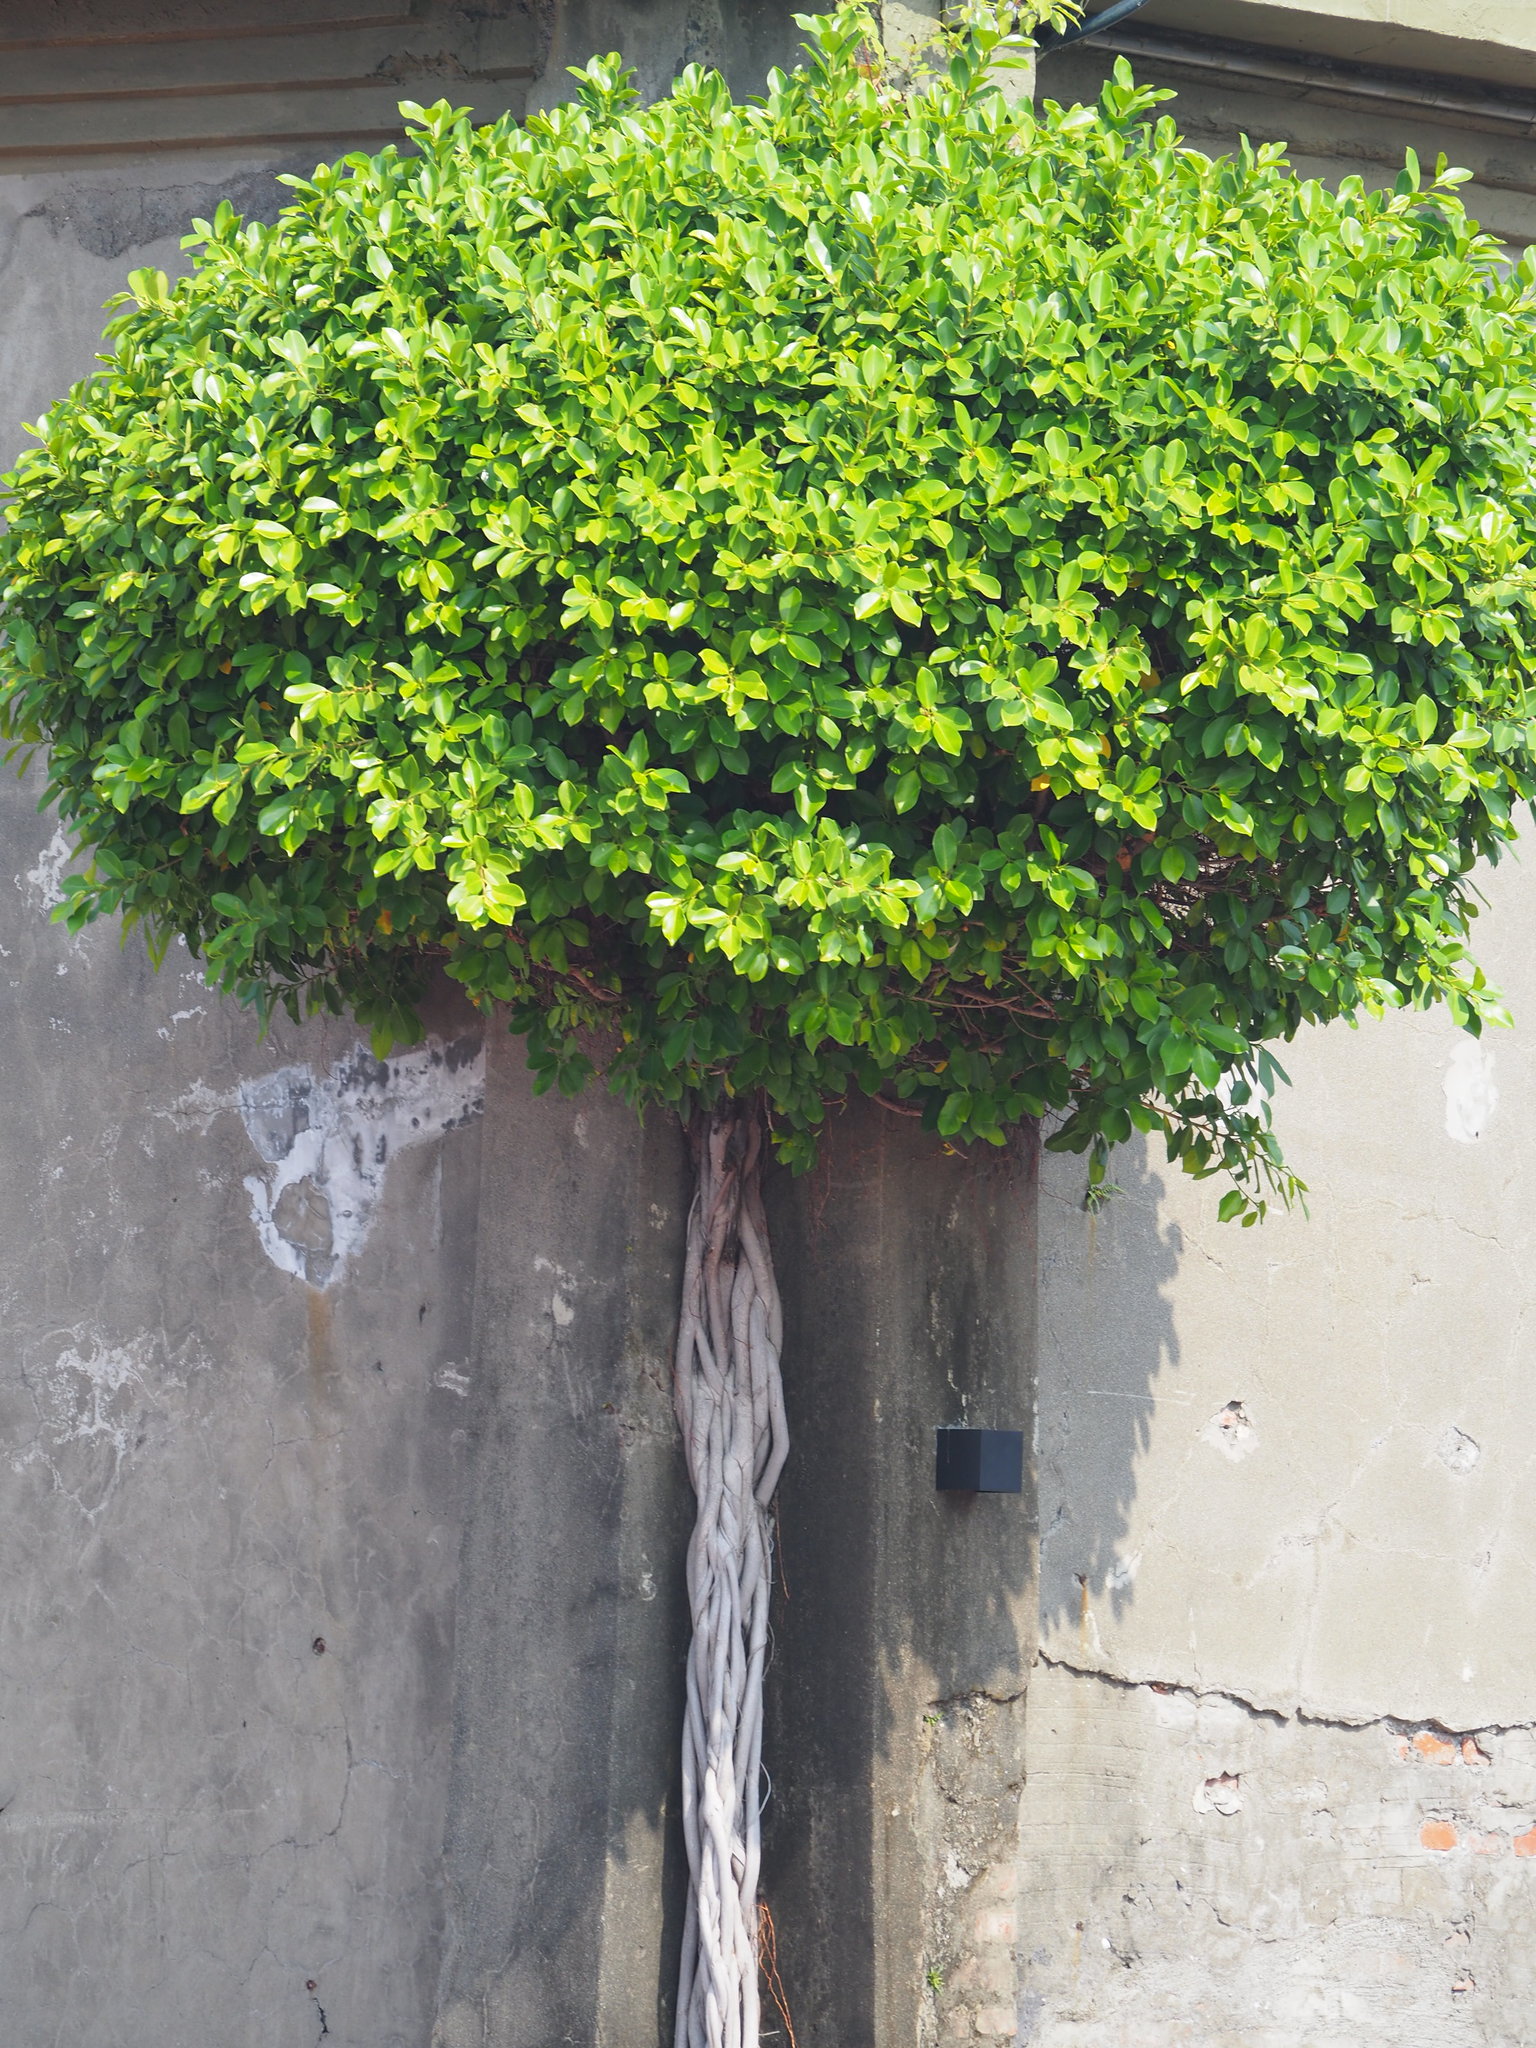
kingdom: Plantae
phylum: Tracheophyta
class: Magnoliopsida
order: Rosales
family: Moraceae
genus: Ficus
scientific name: Ficus microcarpa
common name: Chinese banyan
